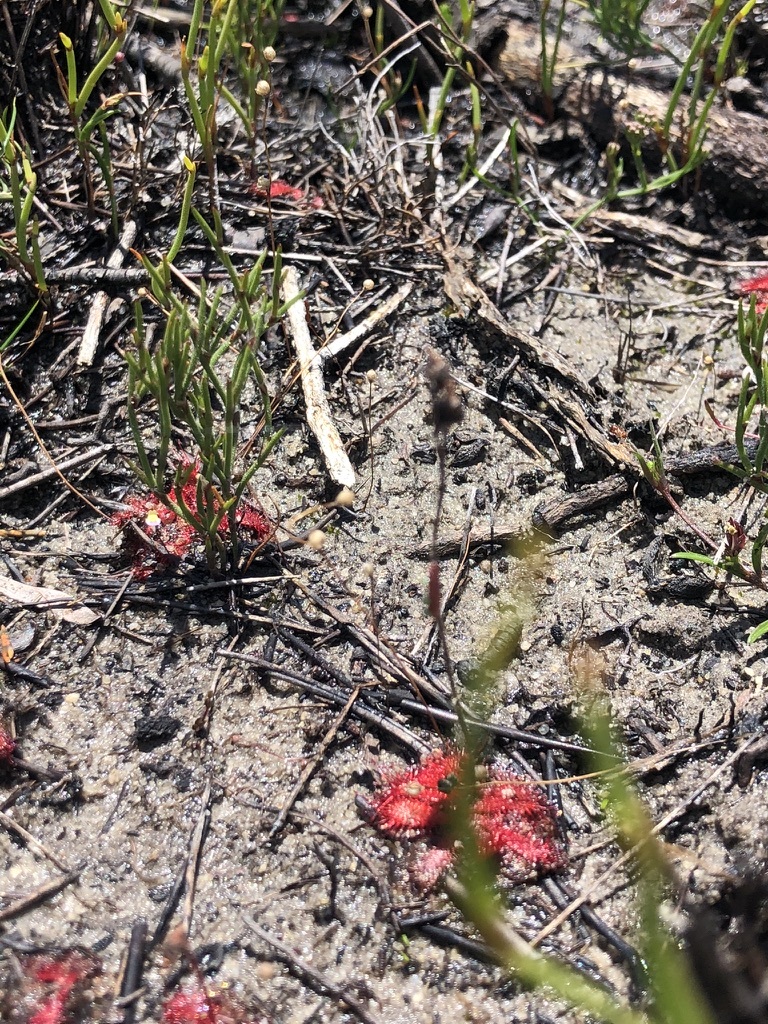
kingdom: Plantae
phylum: Tracheophyta
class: Magnoliopsida
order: Caryophyllales
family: Droseraceae
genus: Drosera
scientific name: Drosera trinervia
